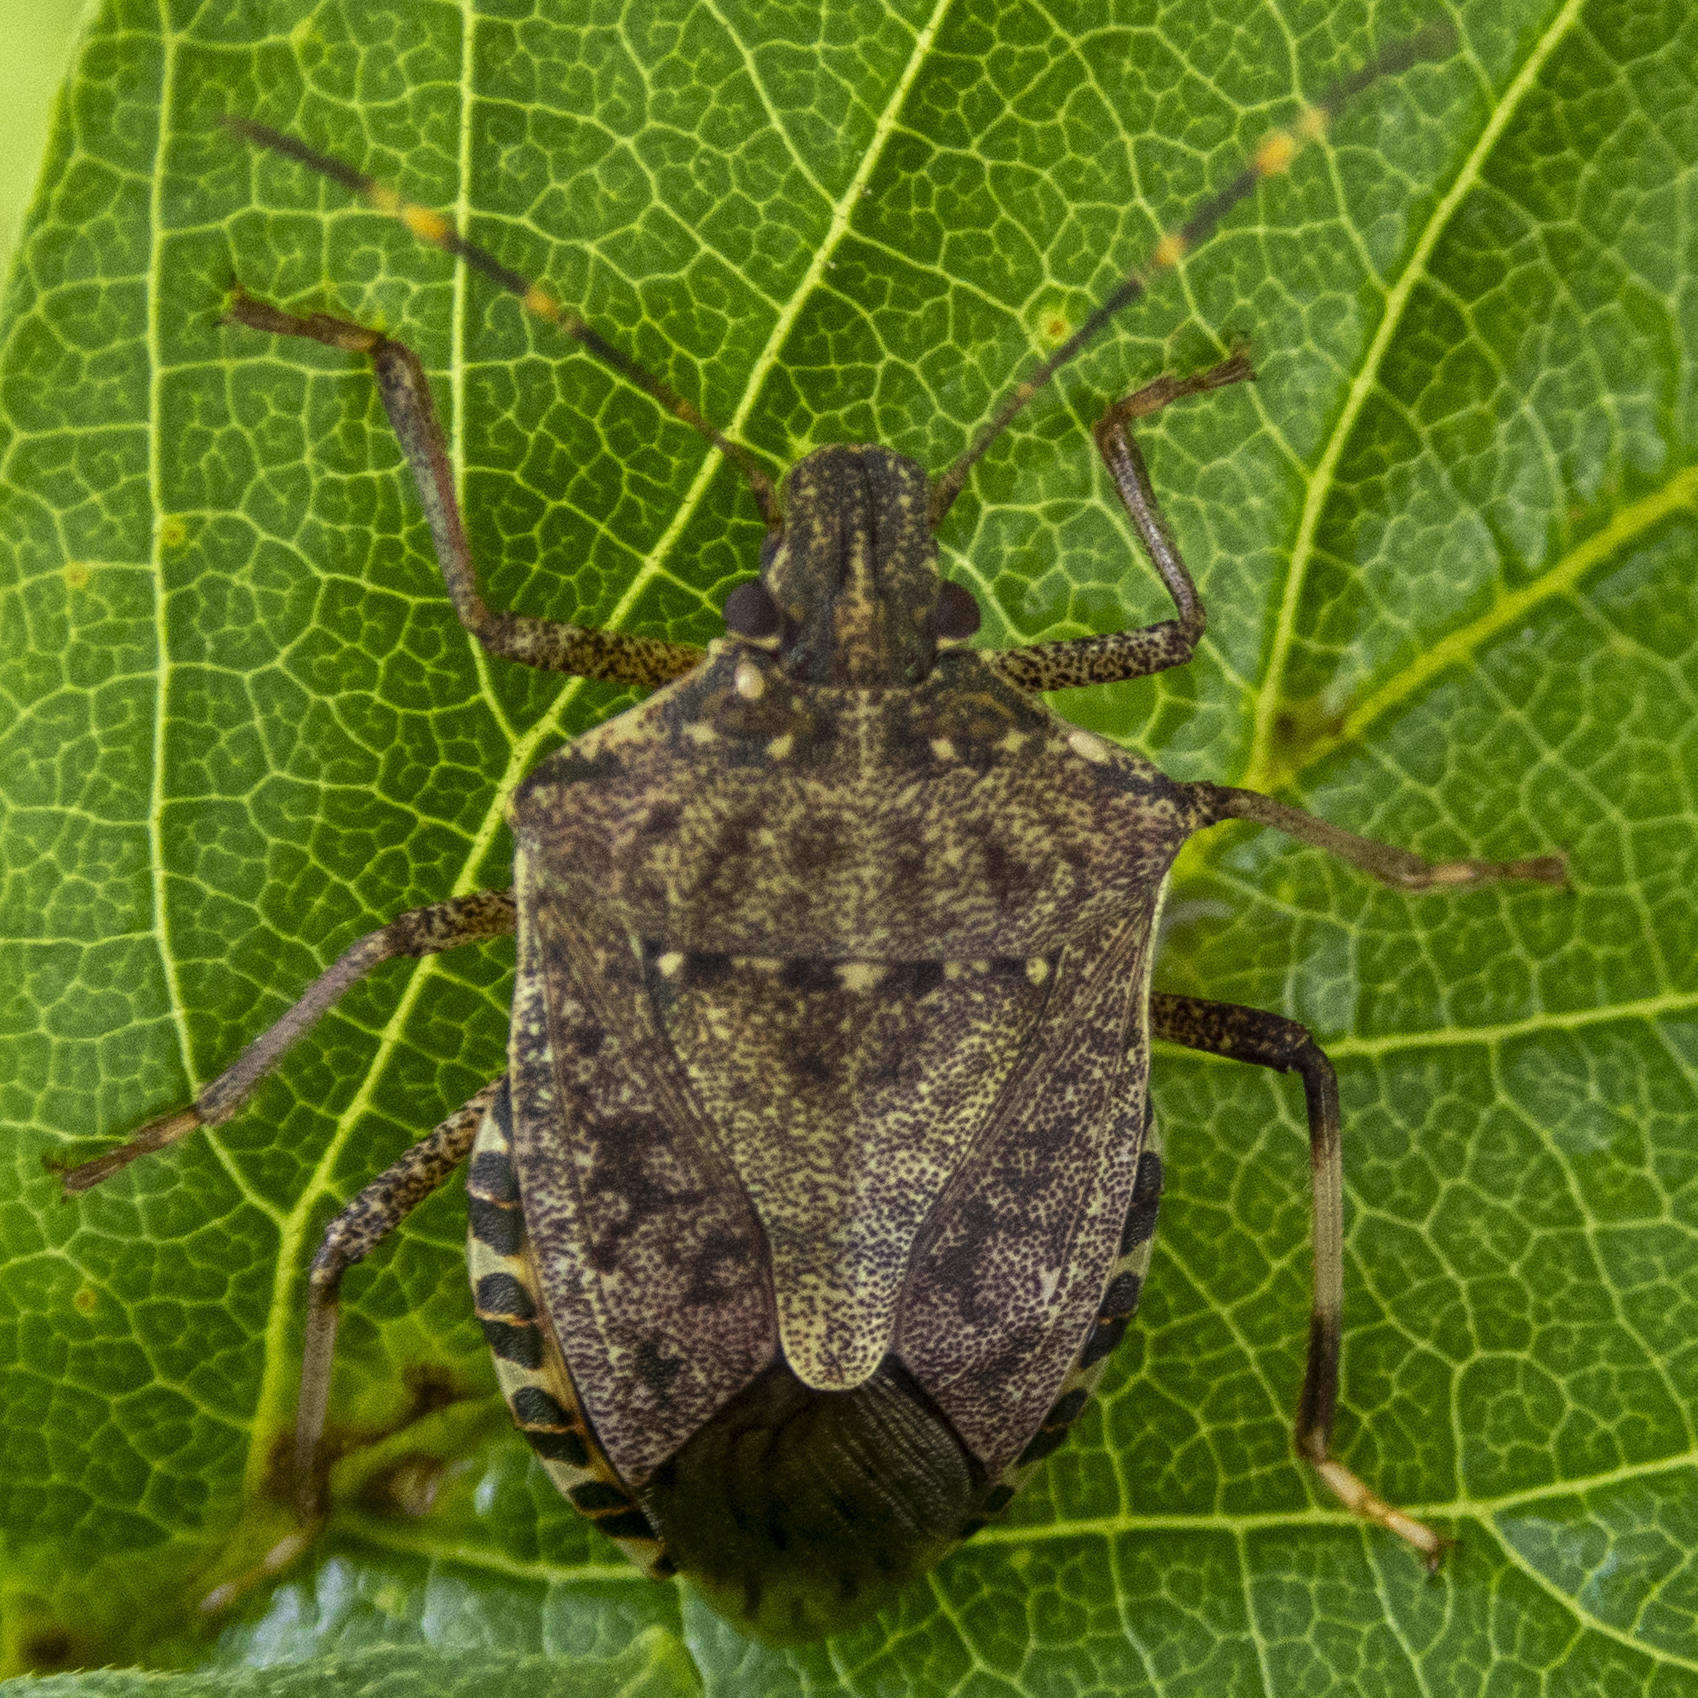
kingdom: Animalia
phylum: Arthropoda
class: Insecta
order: Hemiptera
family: Pentatomidae
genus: Halyomorpha
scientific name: Halyomorpha halys
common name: Brown marmorated stink bug
